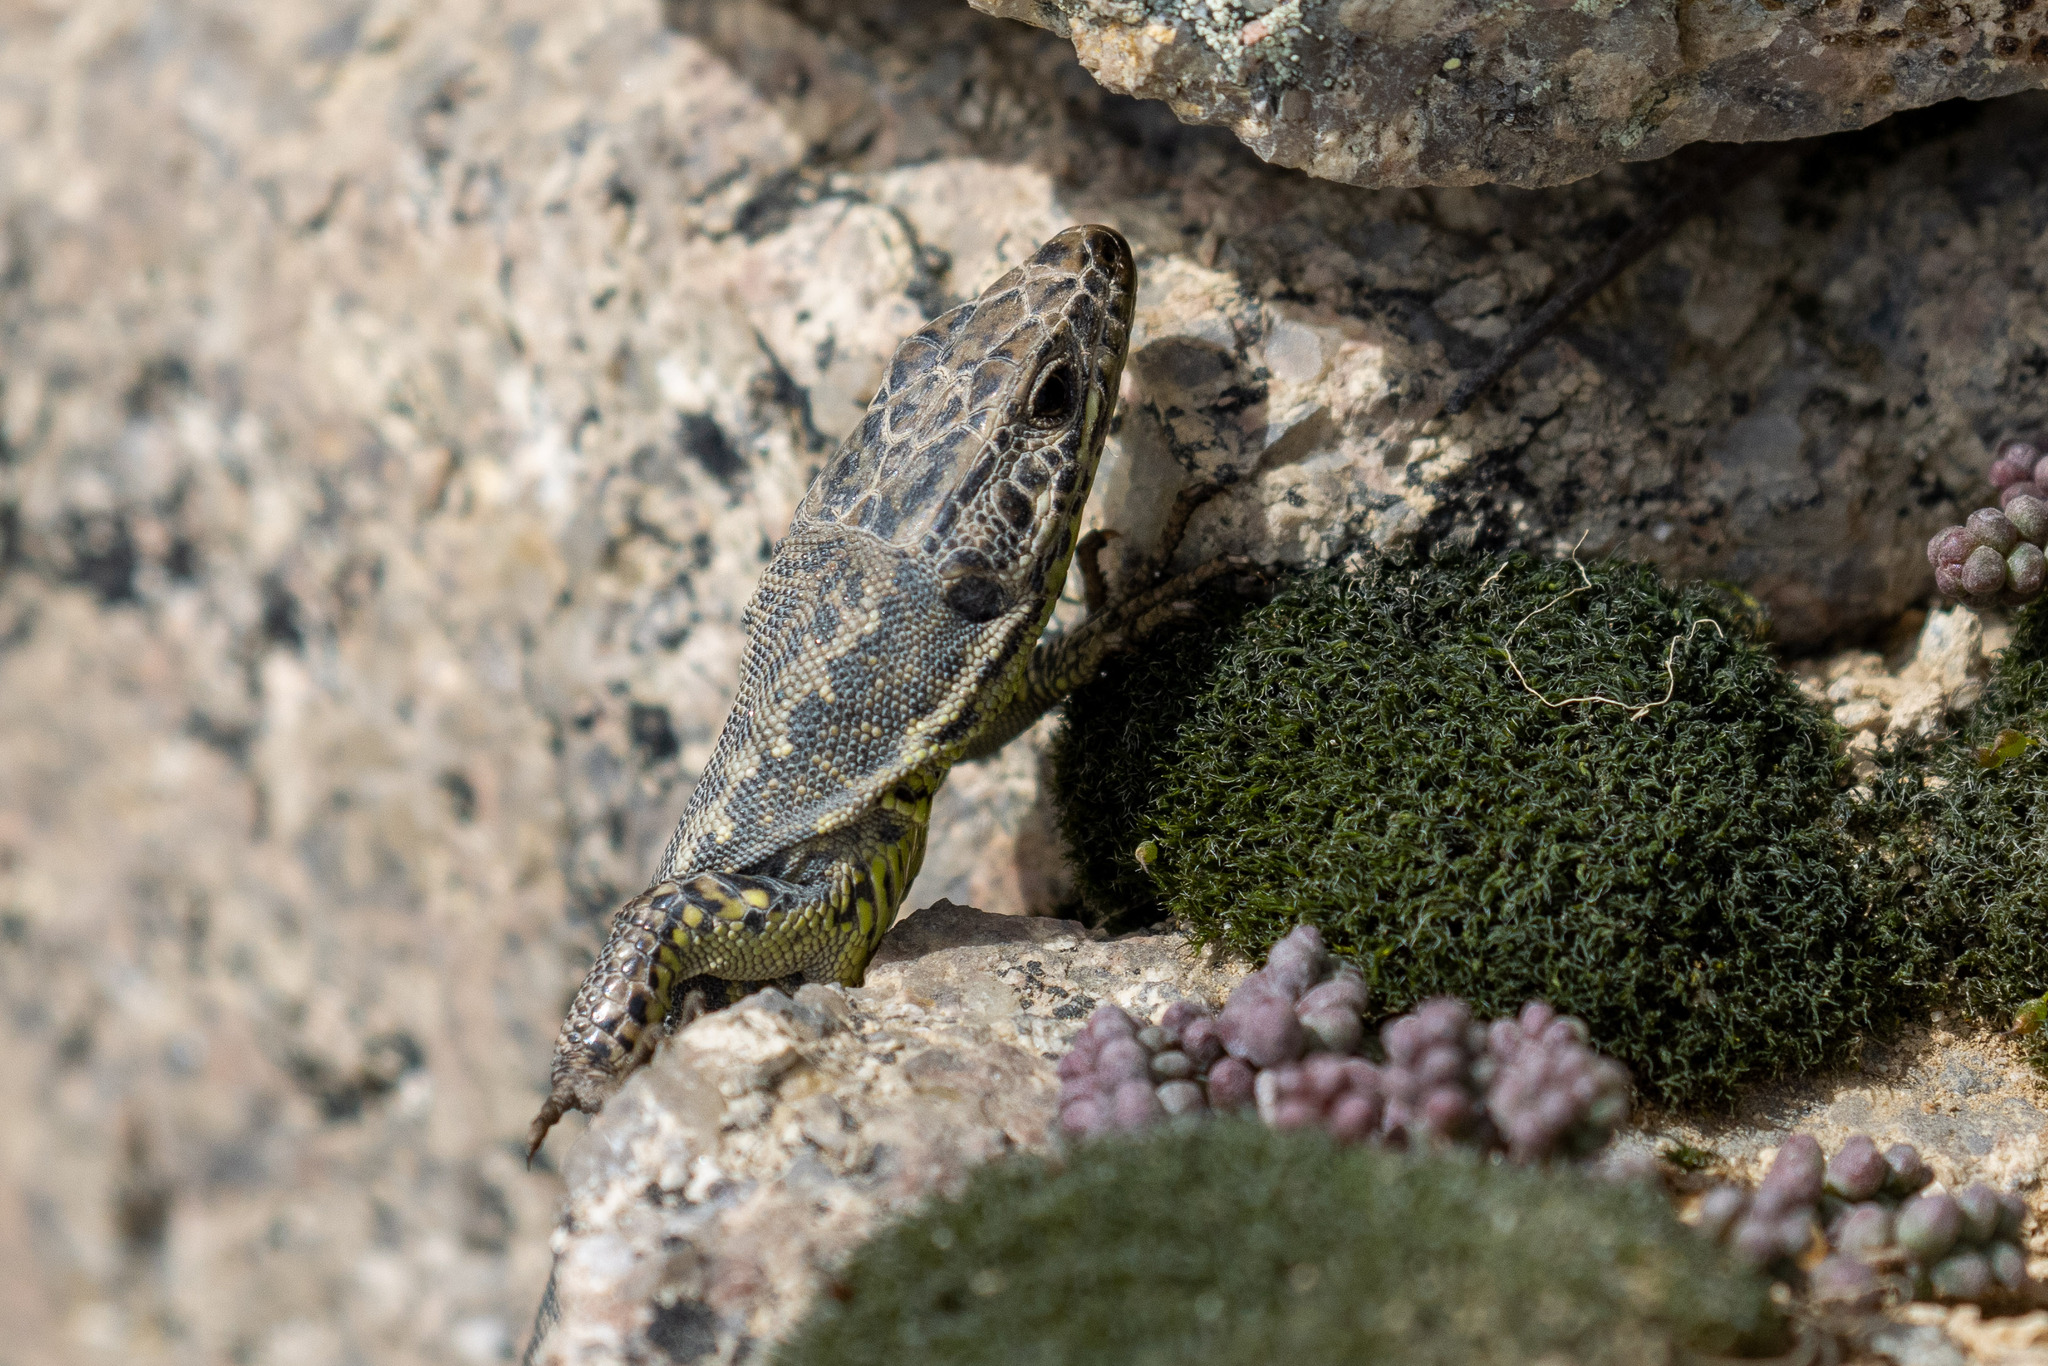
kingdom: Animalia
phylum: Chordata
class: Squamata
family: Lacertidae
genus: Iberolacerta
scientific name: Iberolacerta monticola
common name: Iberian mountain lizard
